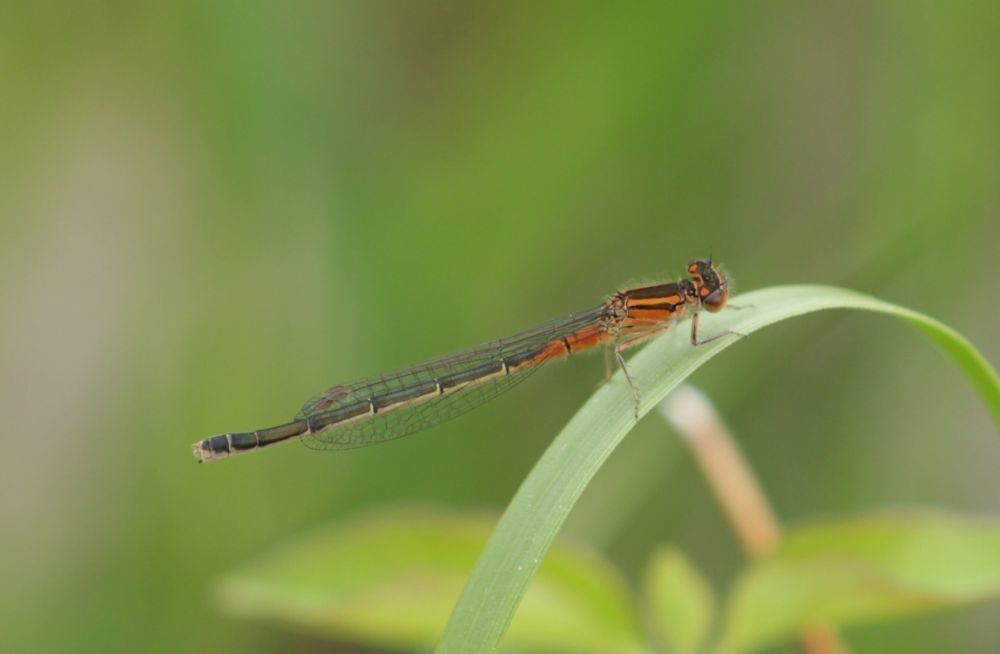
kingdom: Animalia
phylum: Arthropoda
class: Insecta
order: Odonata
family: Coenagrionidae
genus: Ischnura
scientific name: Ischnura verticalis
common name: Eastern forktail
